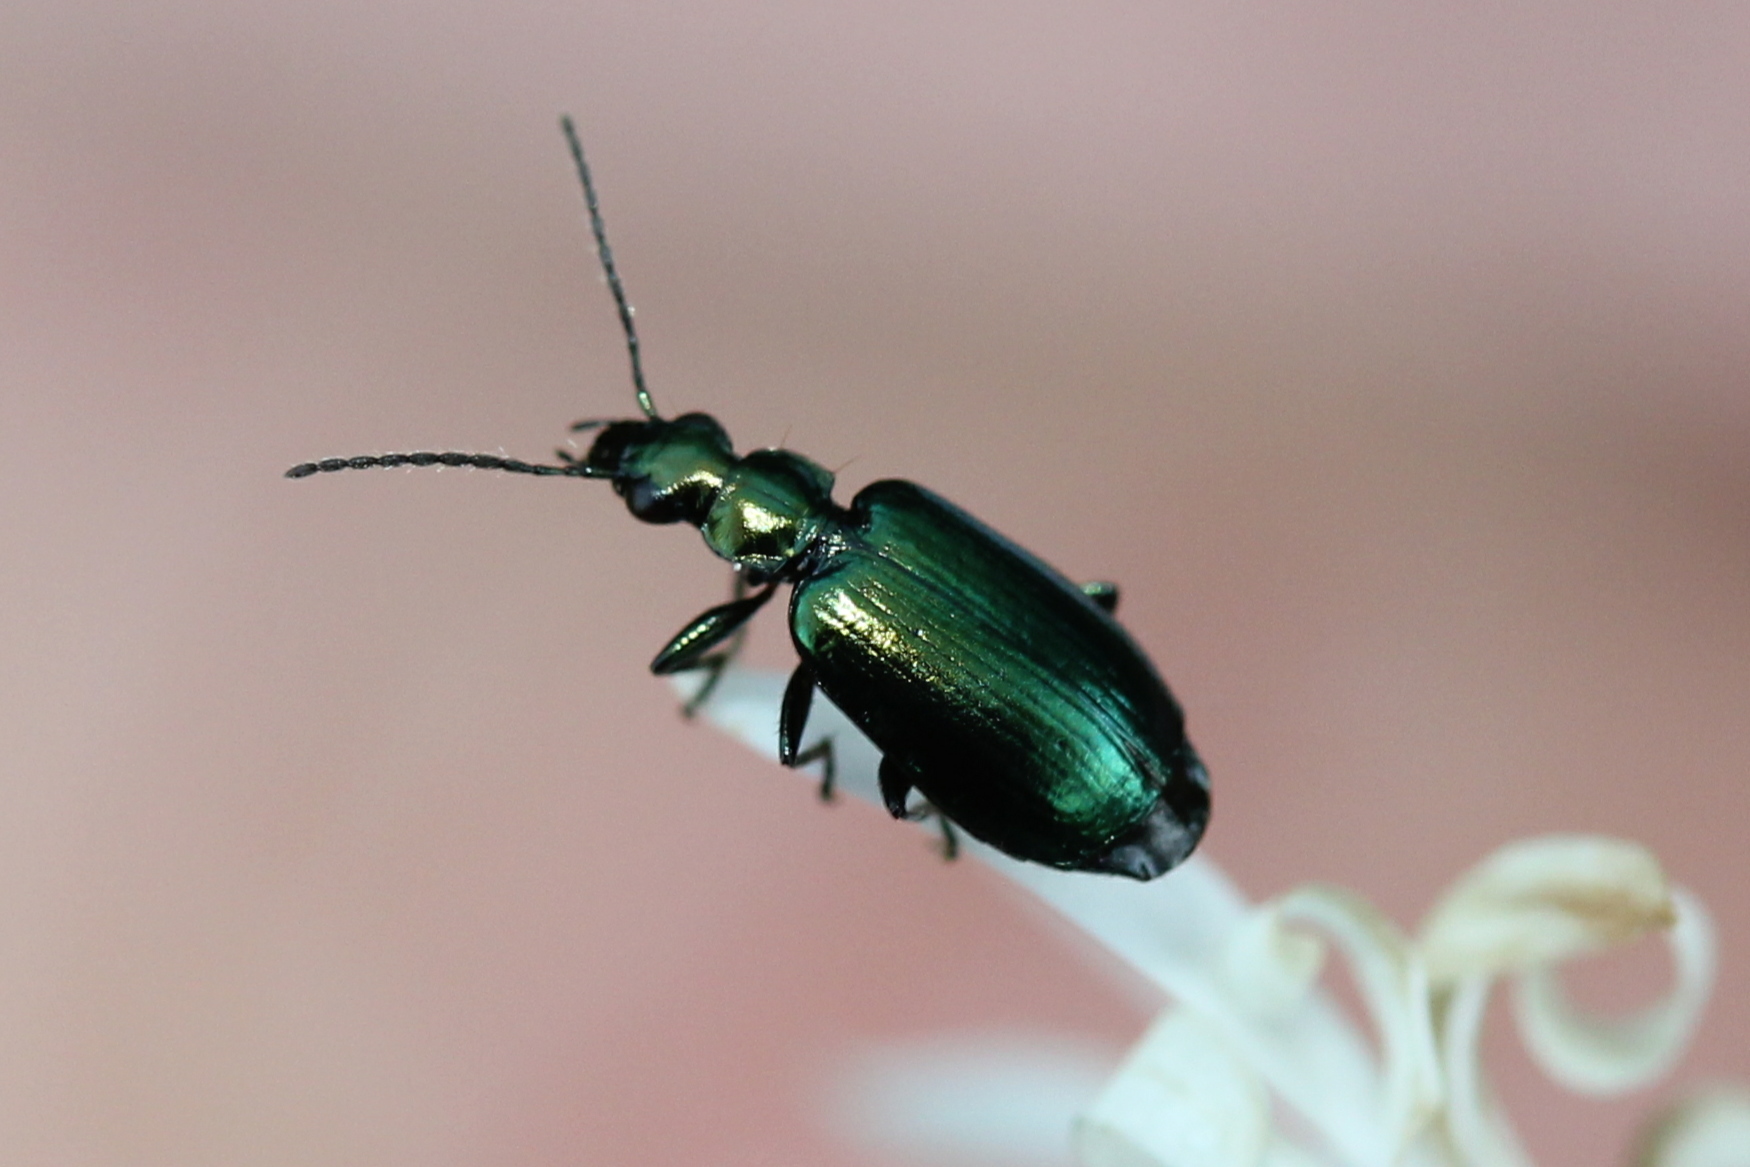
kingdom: Animalia
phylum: Arthropoda
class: Insecta
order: Coleoptera
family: Carabidae
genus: Lebia
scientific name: Lebia viridis
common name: Flower lebia beetle
